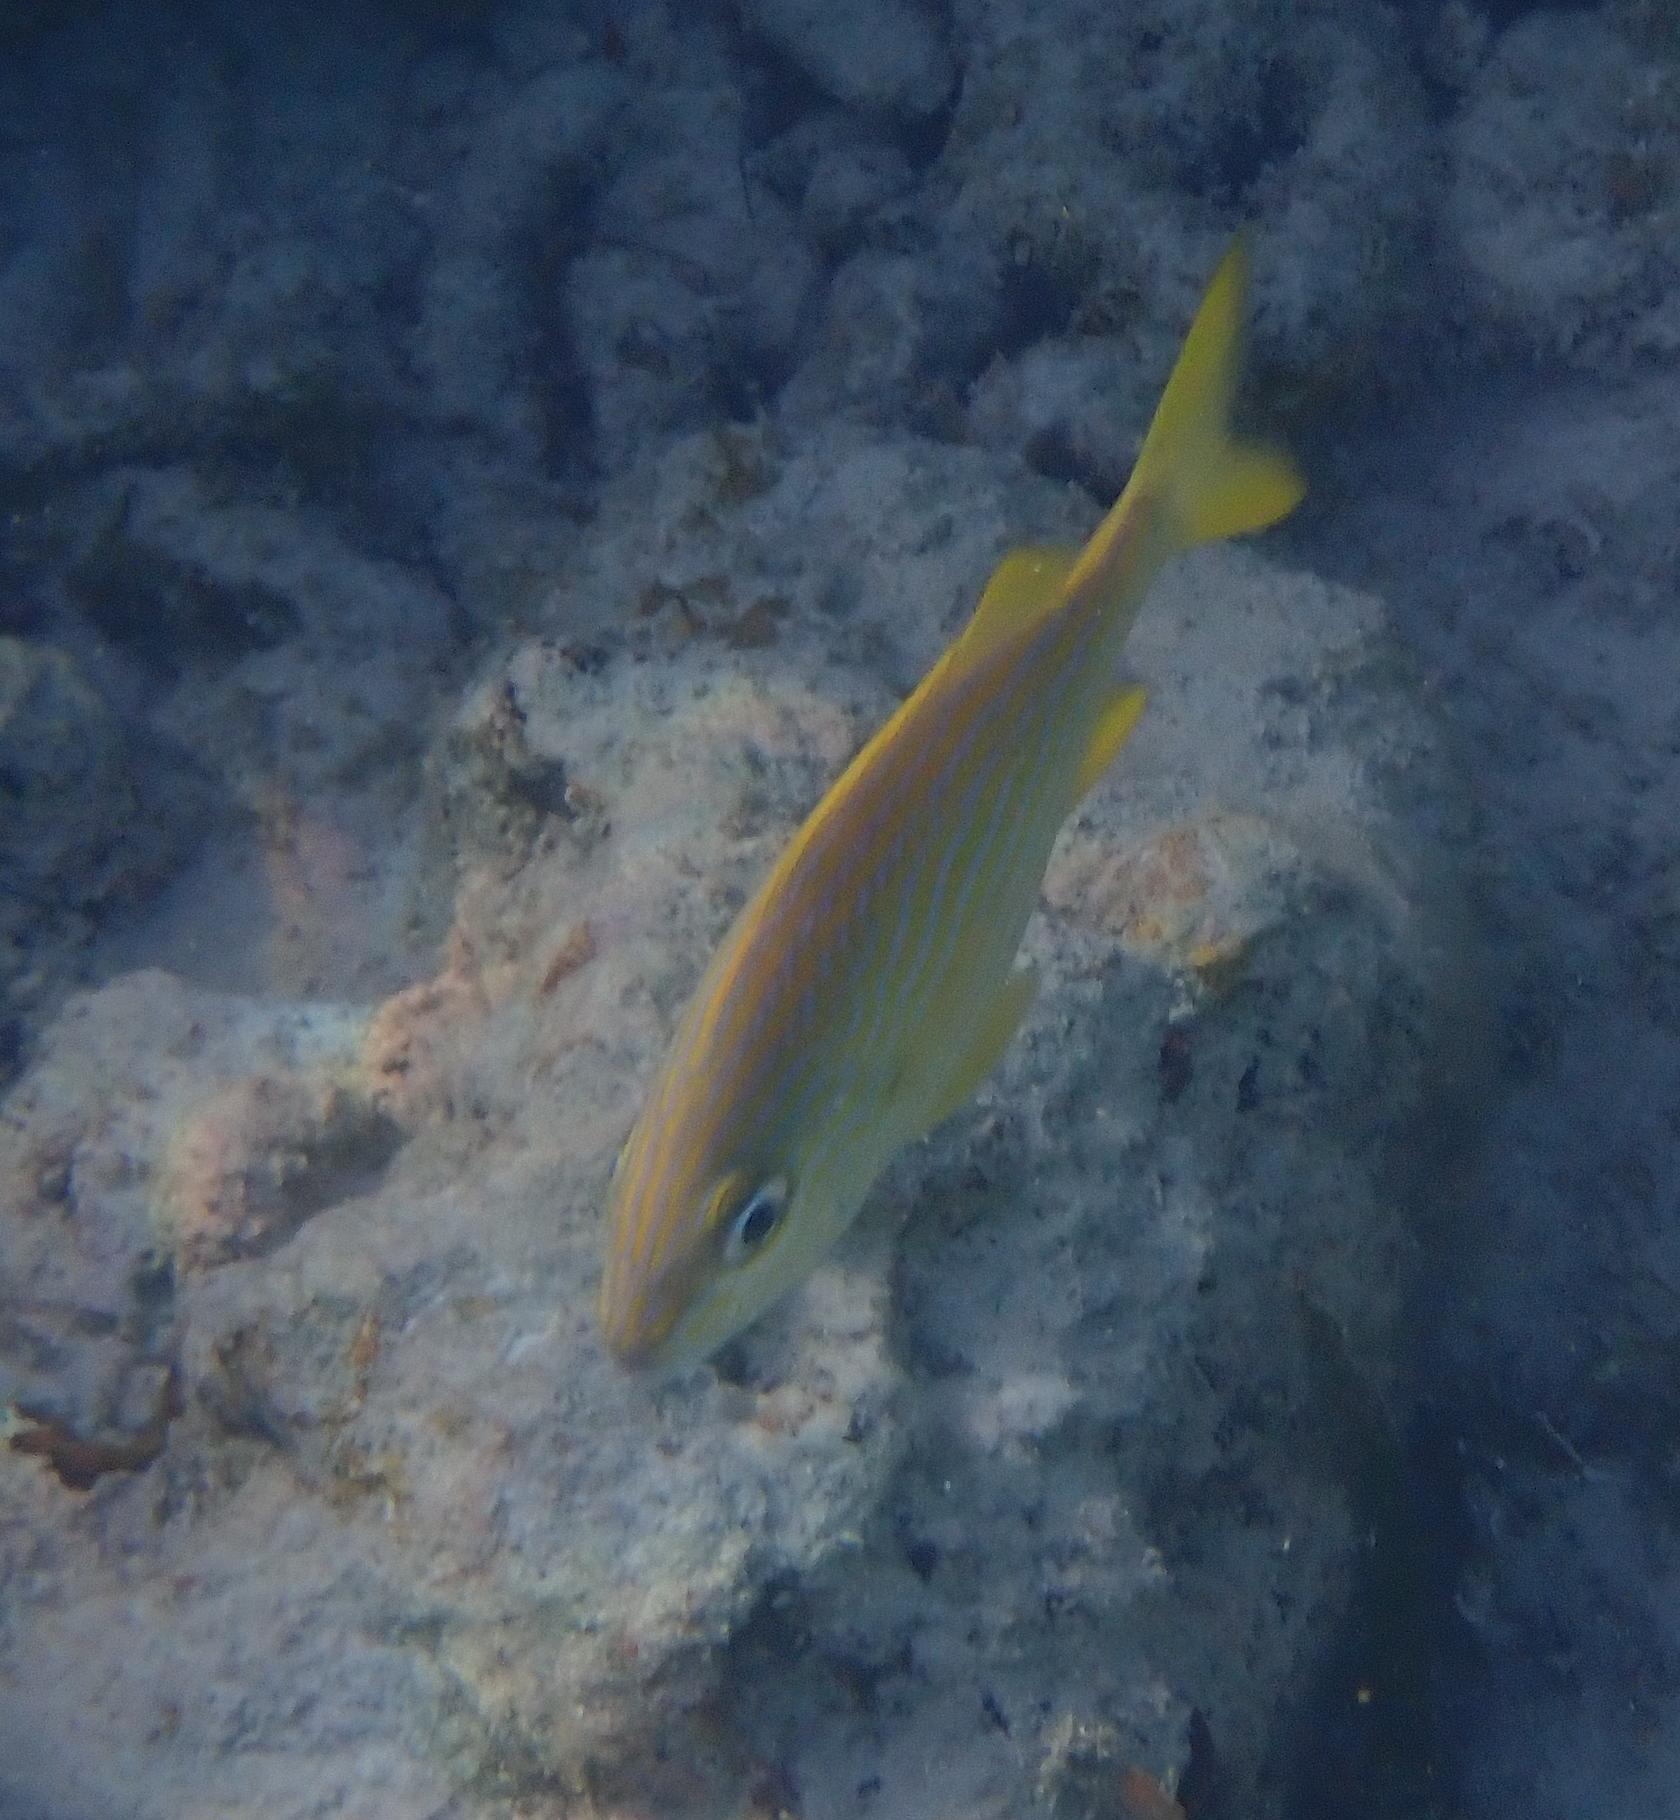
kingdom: Animalia
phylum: Chordata
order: Perciformes
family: Haemulidae
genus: Haemulon
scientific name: Haemulon flavolineatum
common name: French grunt
